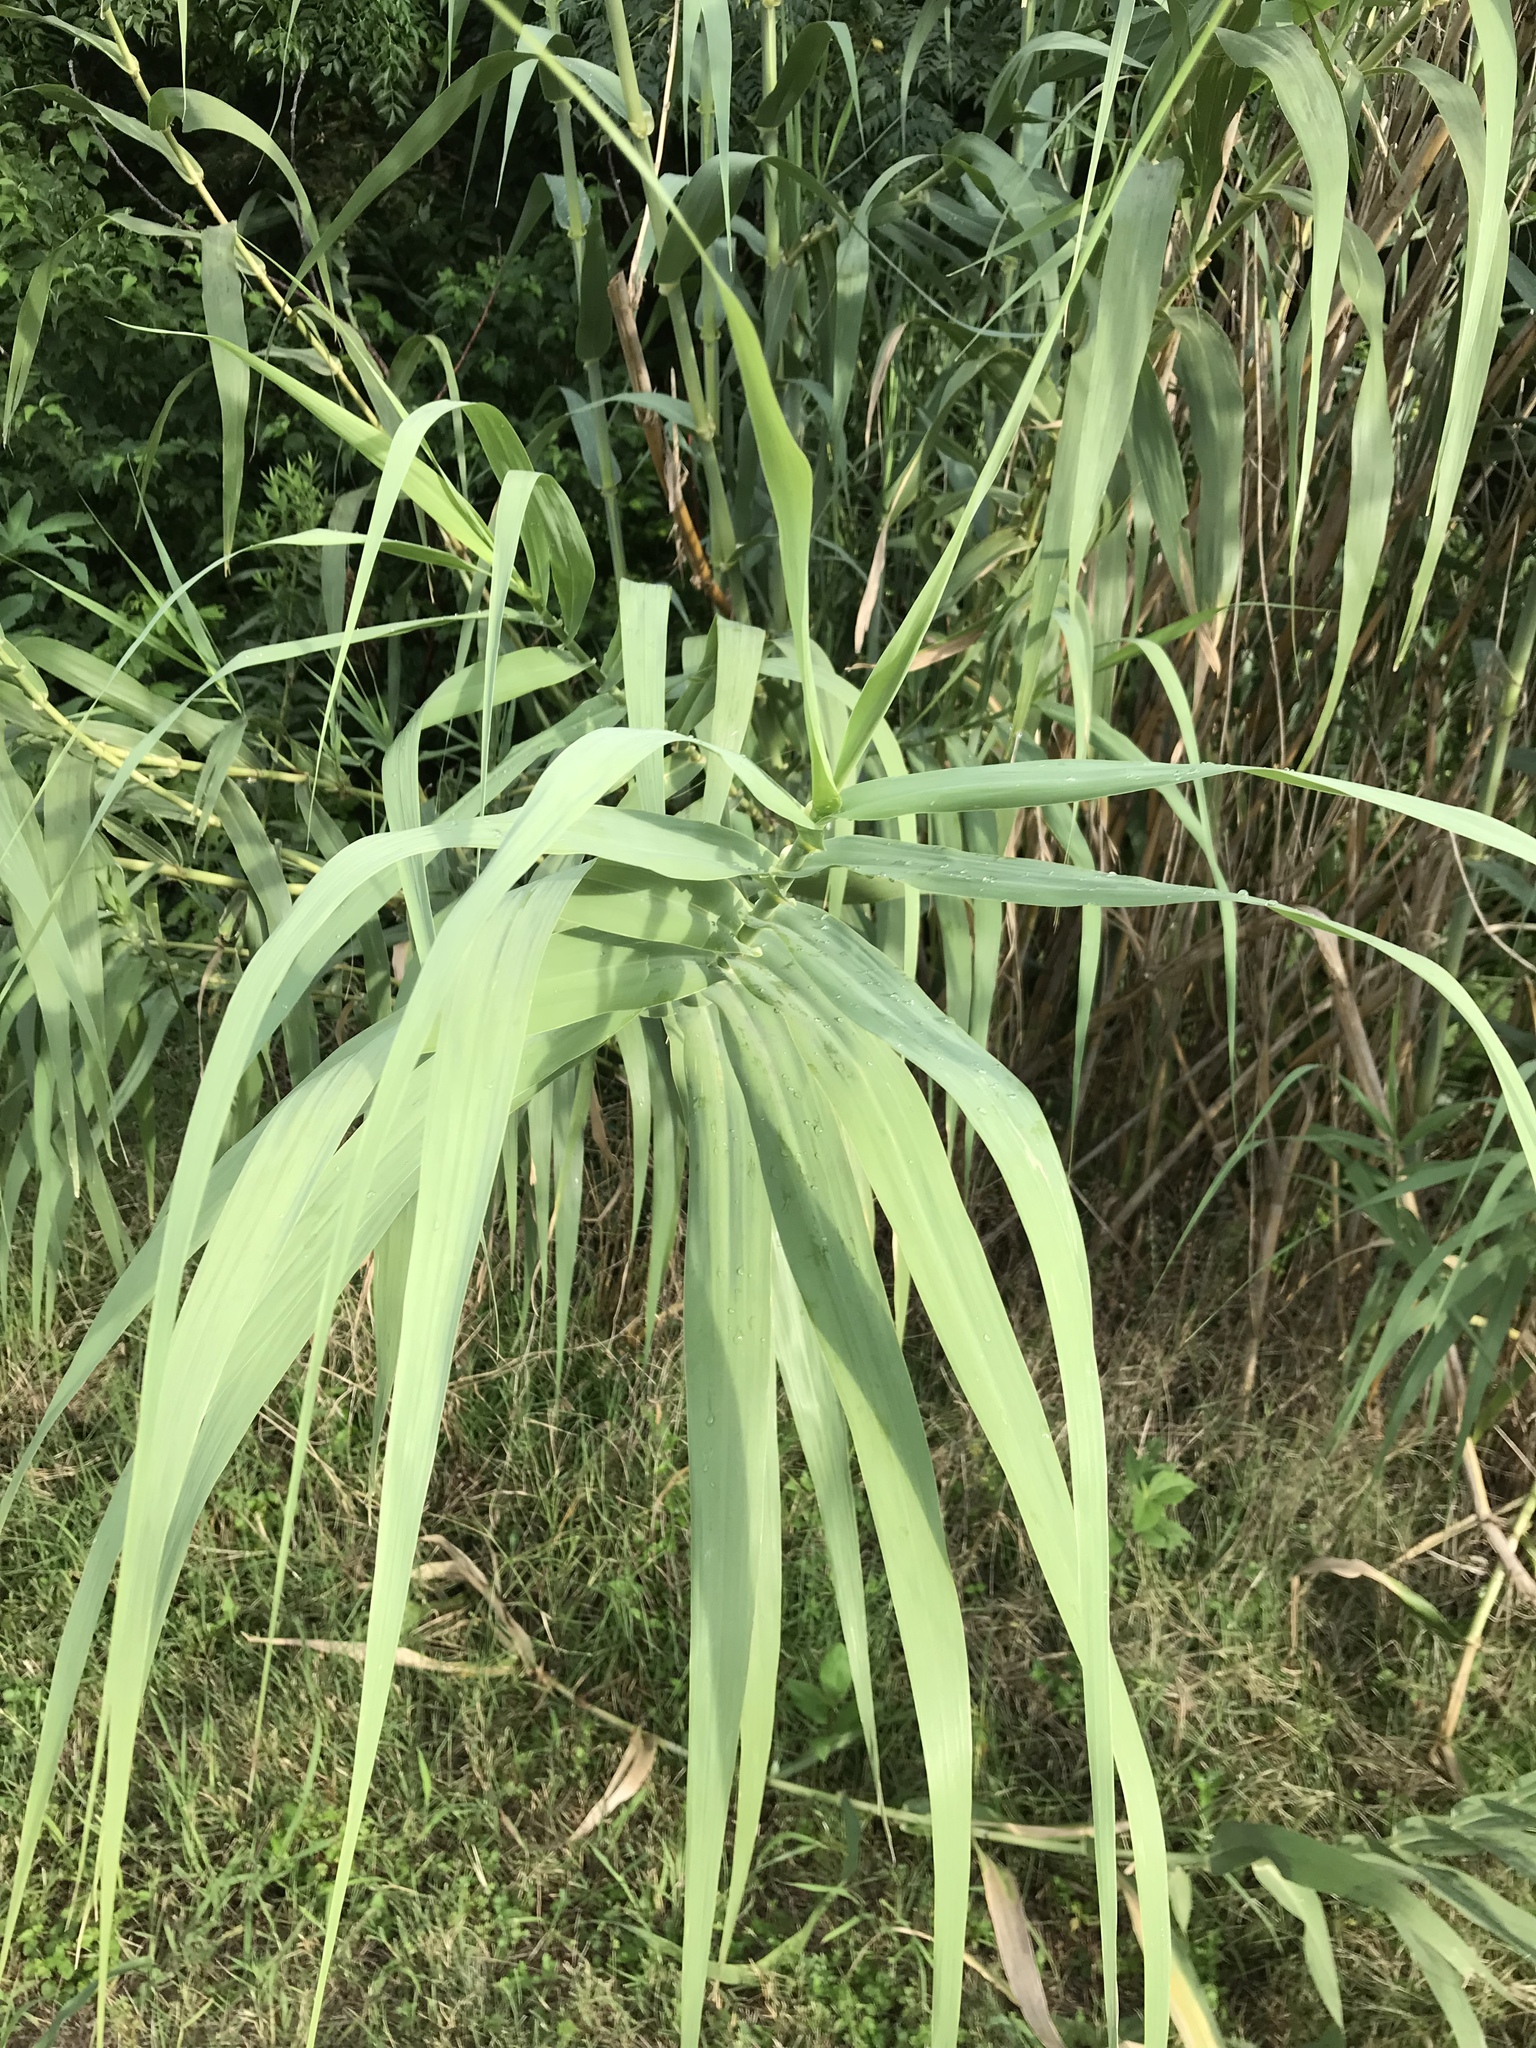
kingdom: Plantae
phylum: Tracheophyta
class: Liliopsida
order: Poales
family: Poaceae
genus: Arundo
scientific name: Arundo donax
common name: Giant reed
